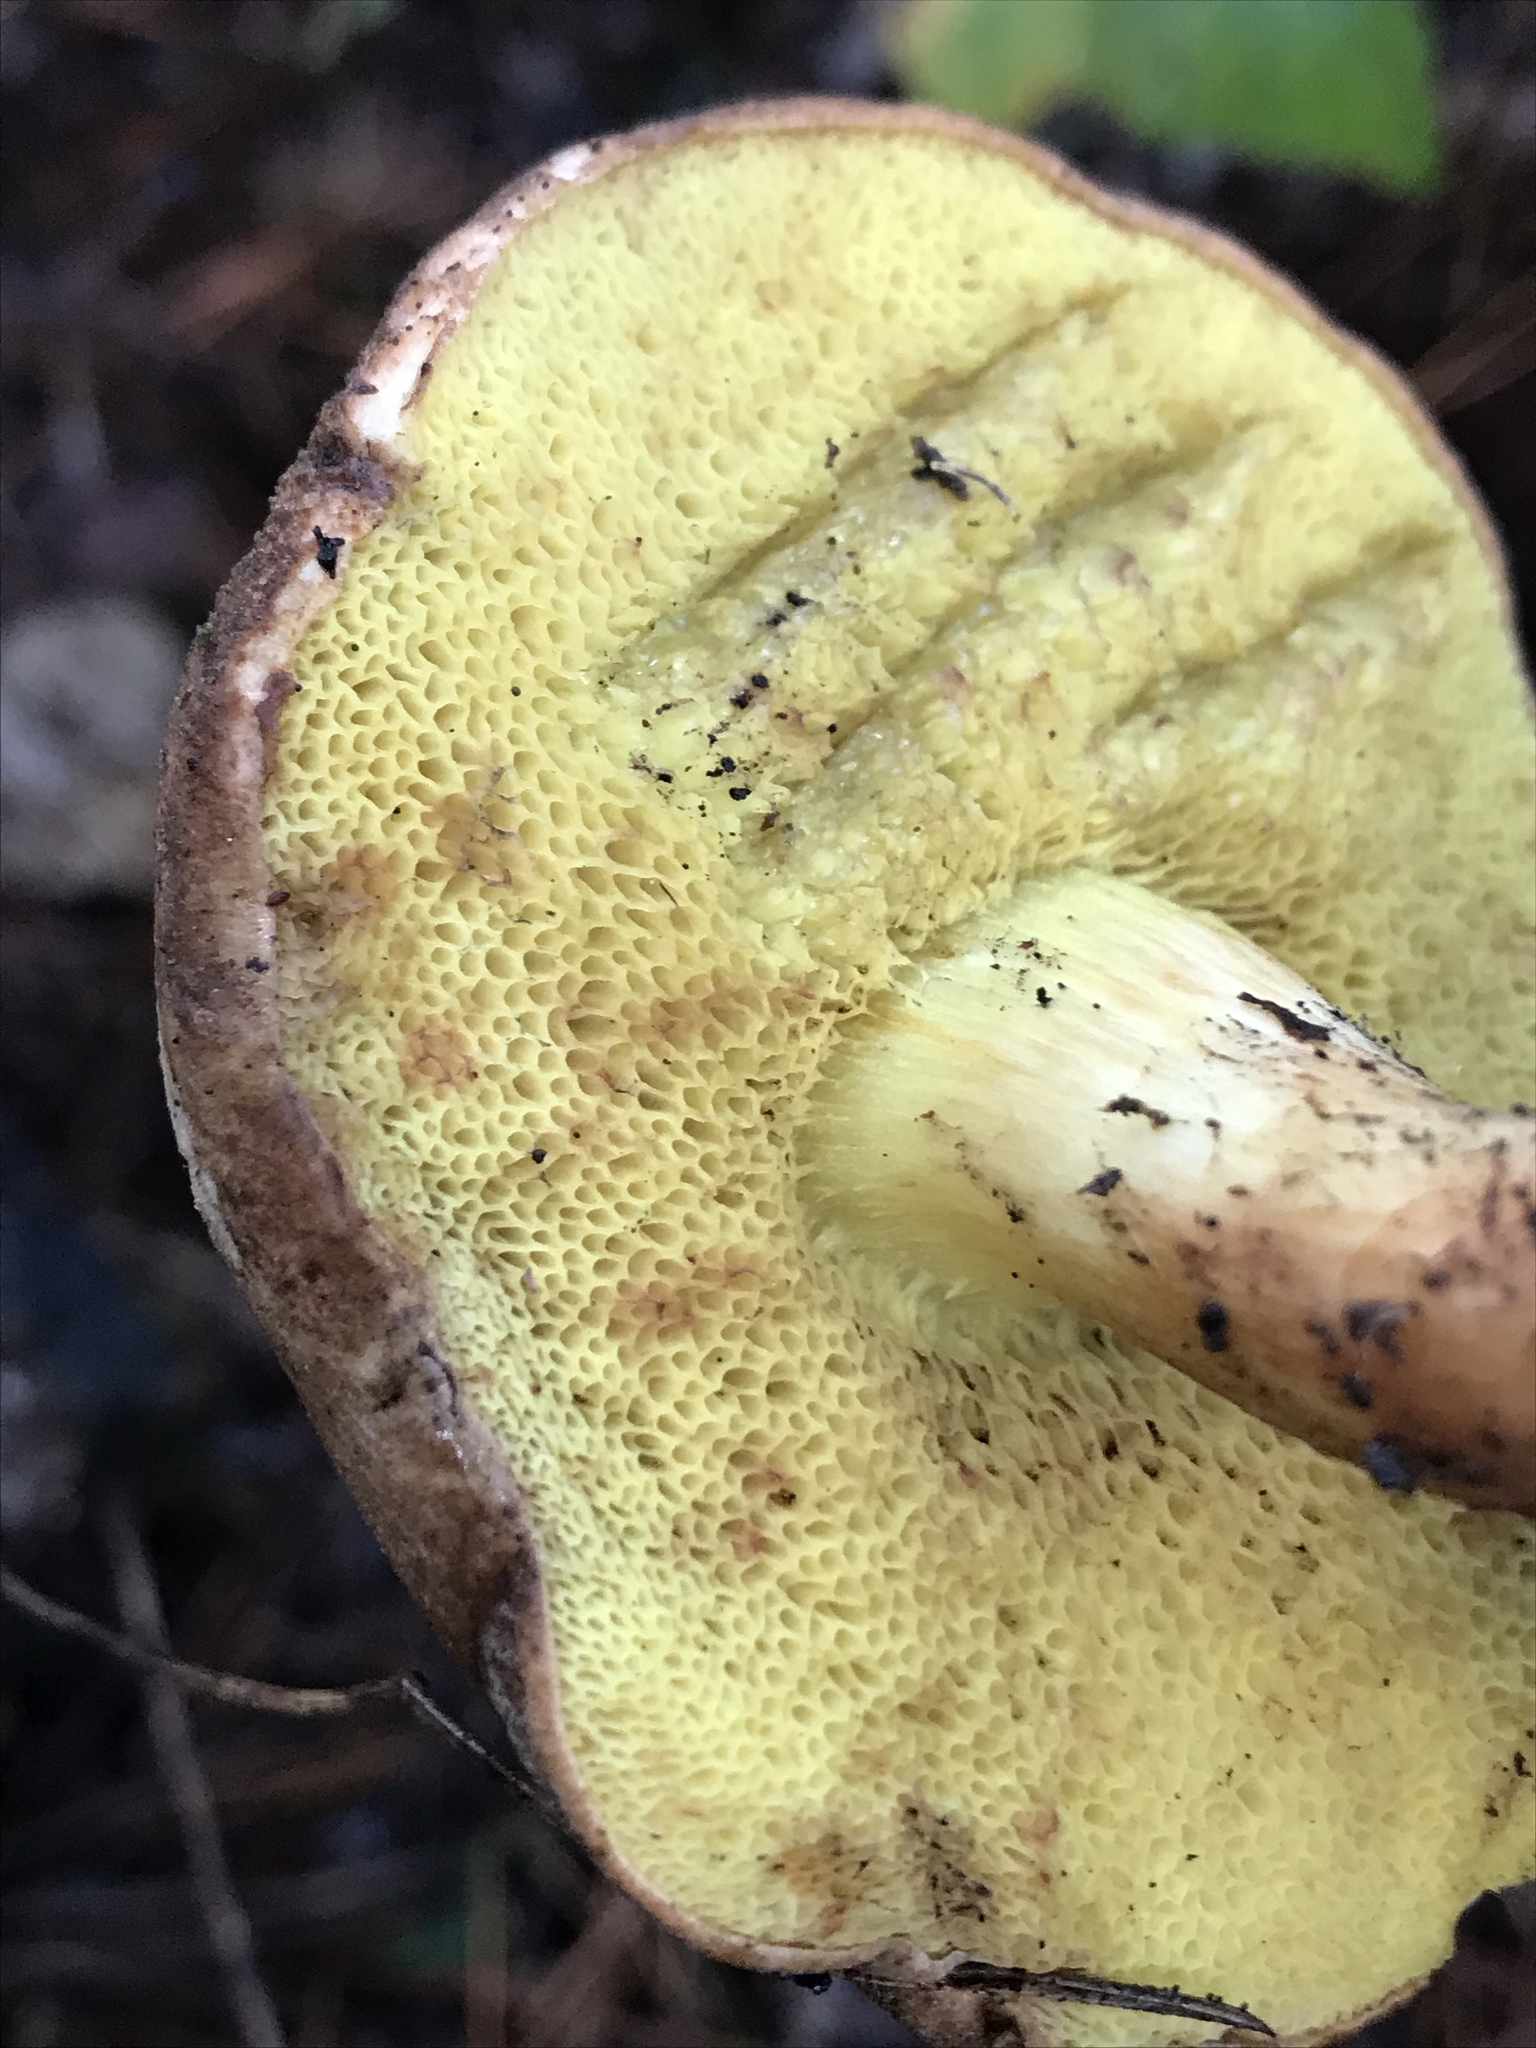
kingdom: Fungi
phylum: Basidiomycota
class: Agaricomycetes
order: Boletales
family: Boletaceae
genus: Xerocomus
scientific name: Xerocomus subtomentosus
